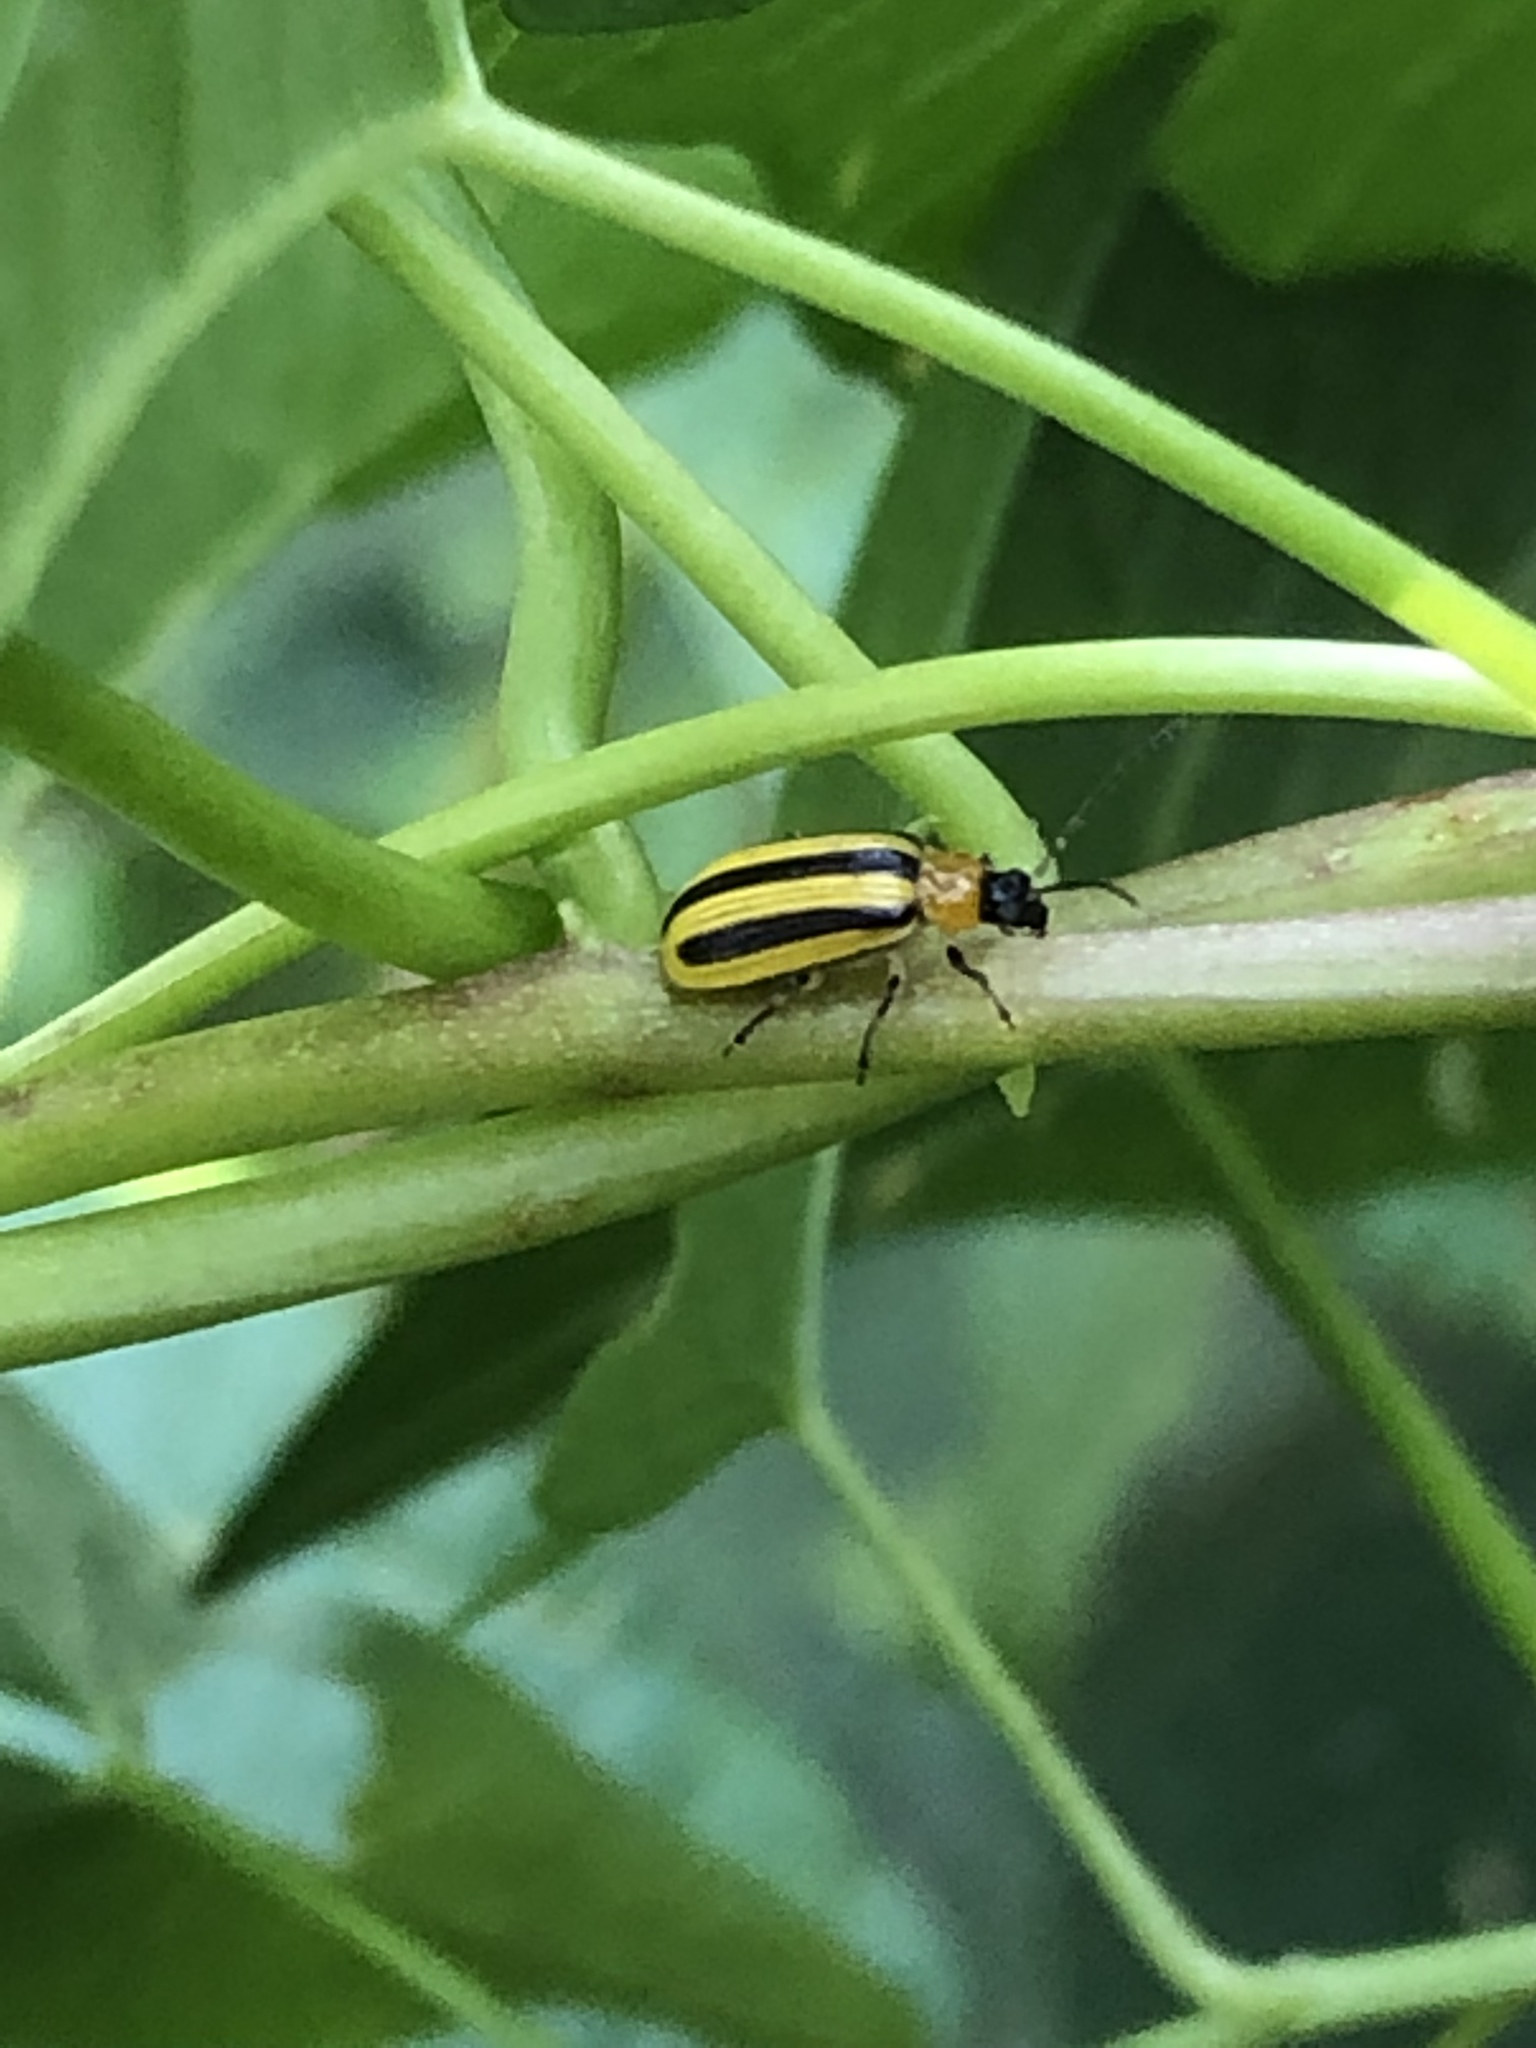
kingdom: Animalia
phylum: Arthropoda
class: Insecta
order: Coleoptera
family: Chrysomelidae
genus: Acalymma
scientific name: Acalymma vittatum
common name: Striped cucumber beetle
